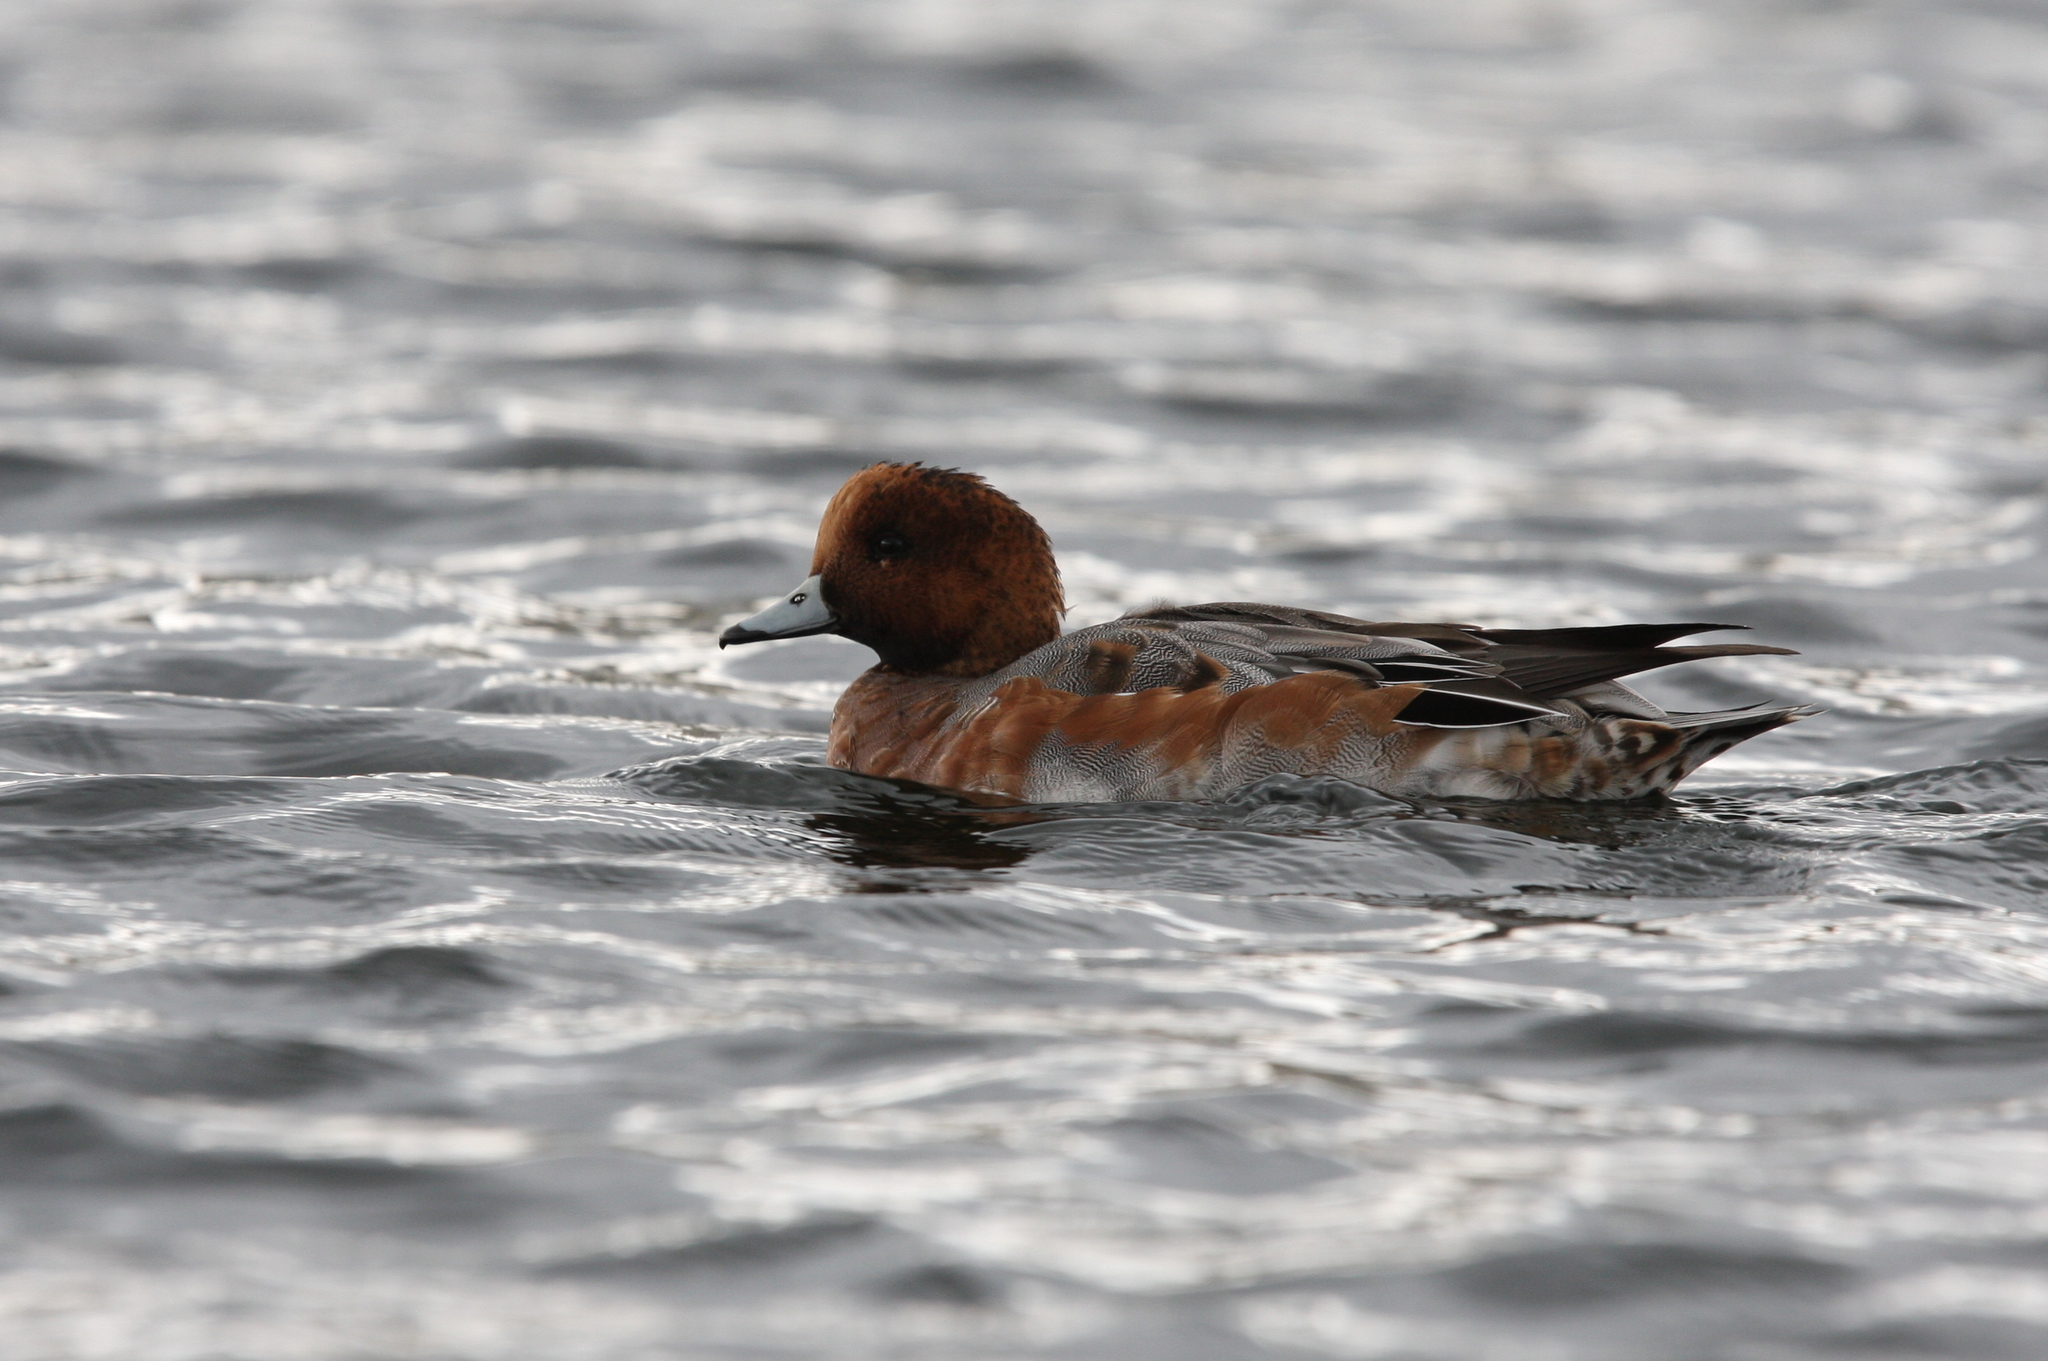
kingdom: Animalia
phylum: Chordata
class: Aves
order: Anseriformes
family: Anatidae
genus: Mareca
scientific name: Mareca penelope
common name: Eurasian wigeon
